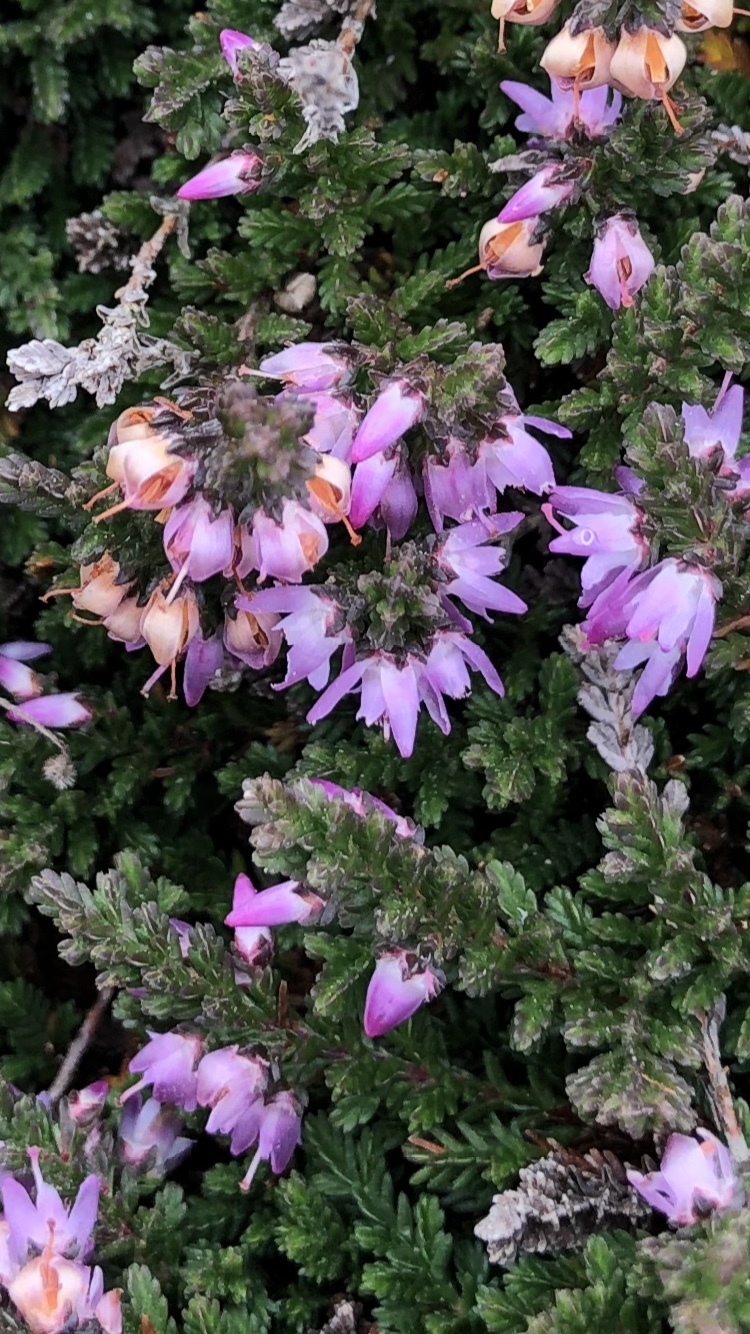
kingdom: Plantae
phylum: Tracheophyta
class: Magnoliopsida
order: Ericales
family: Ericaceae
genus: Calluna
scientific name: Calluna vulgaris
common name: Heather
